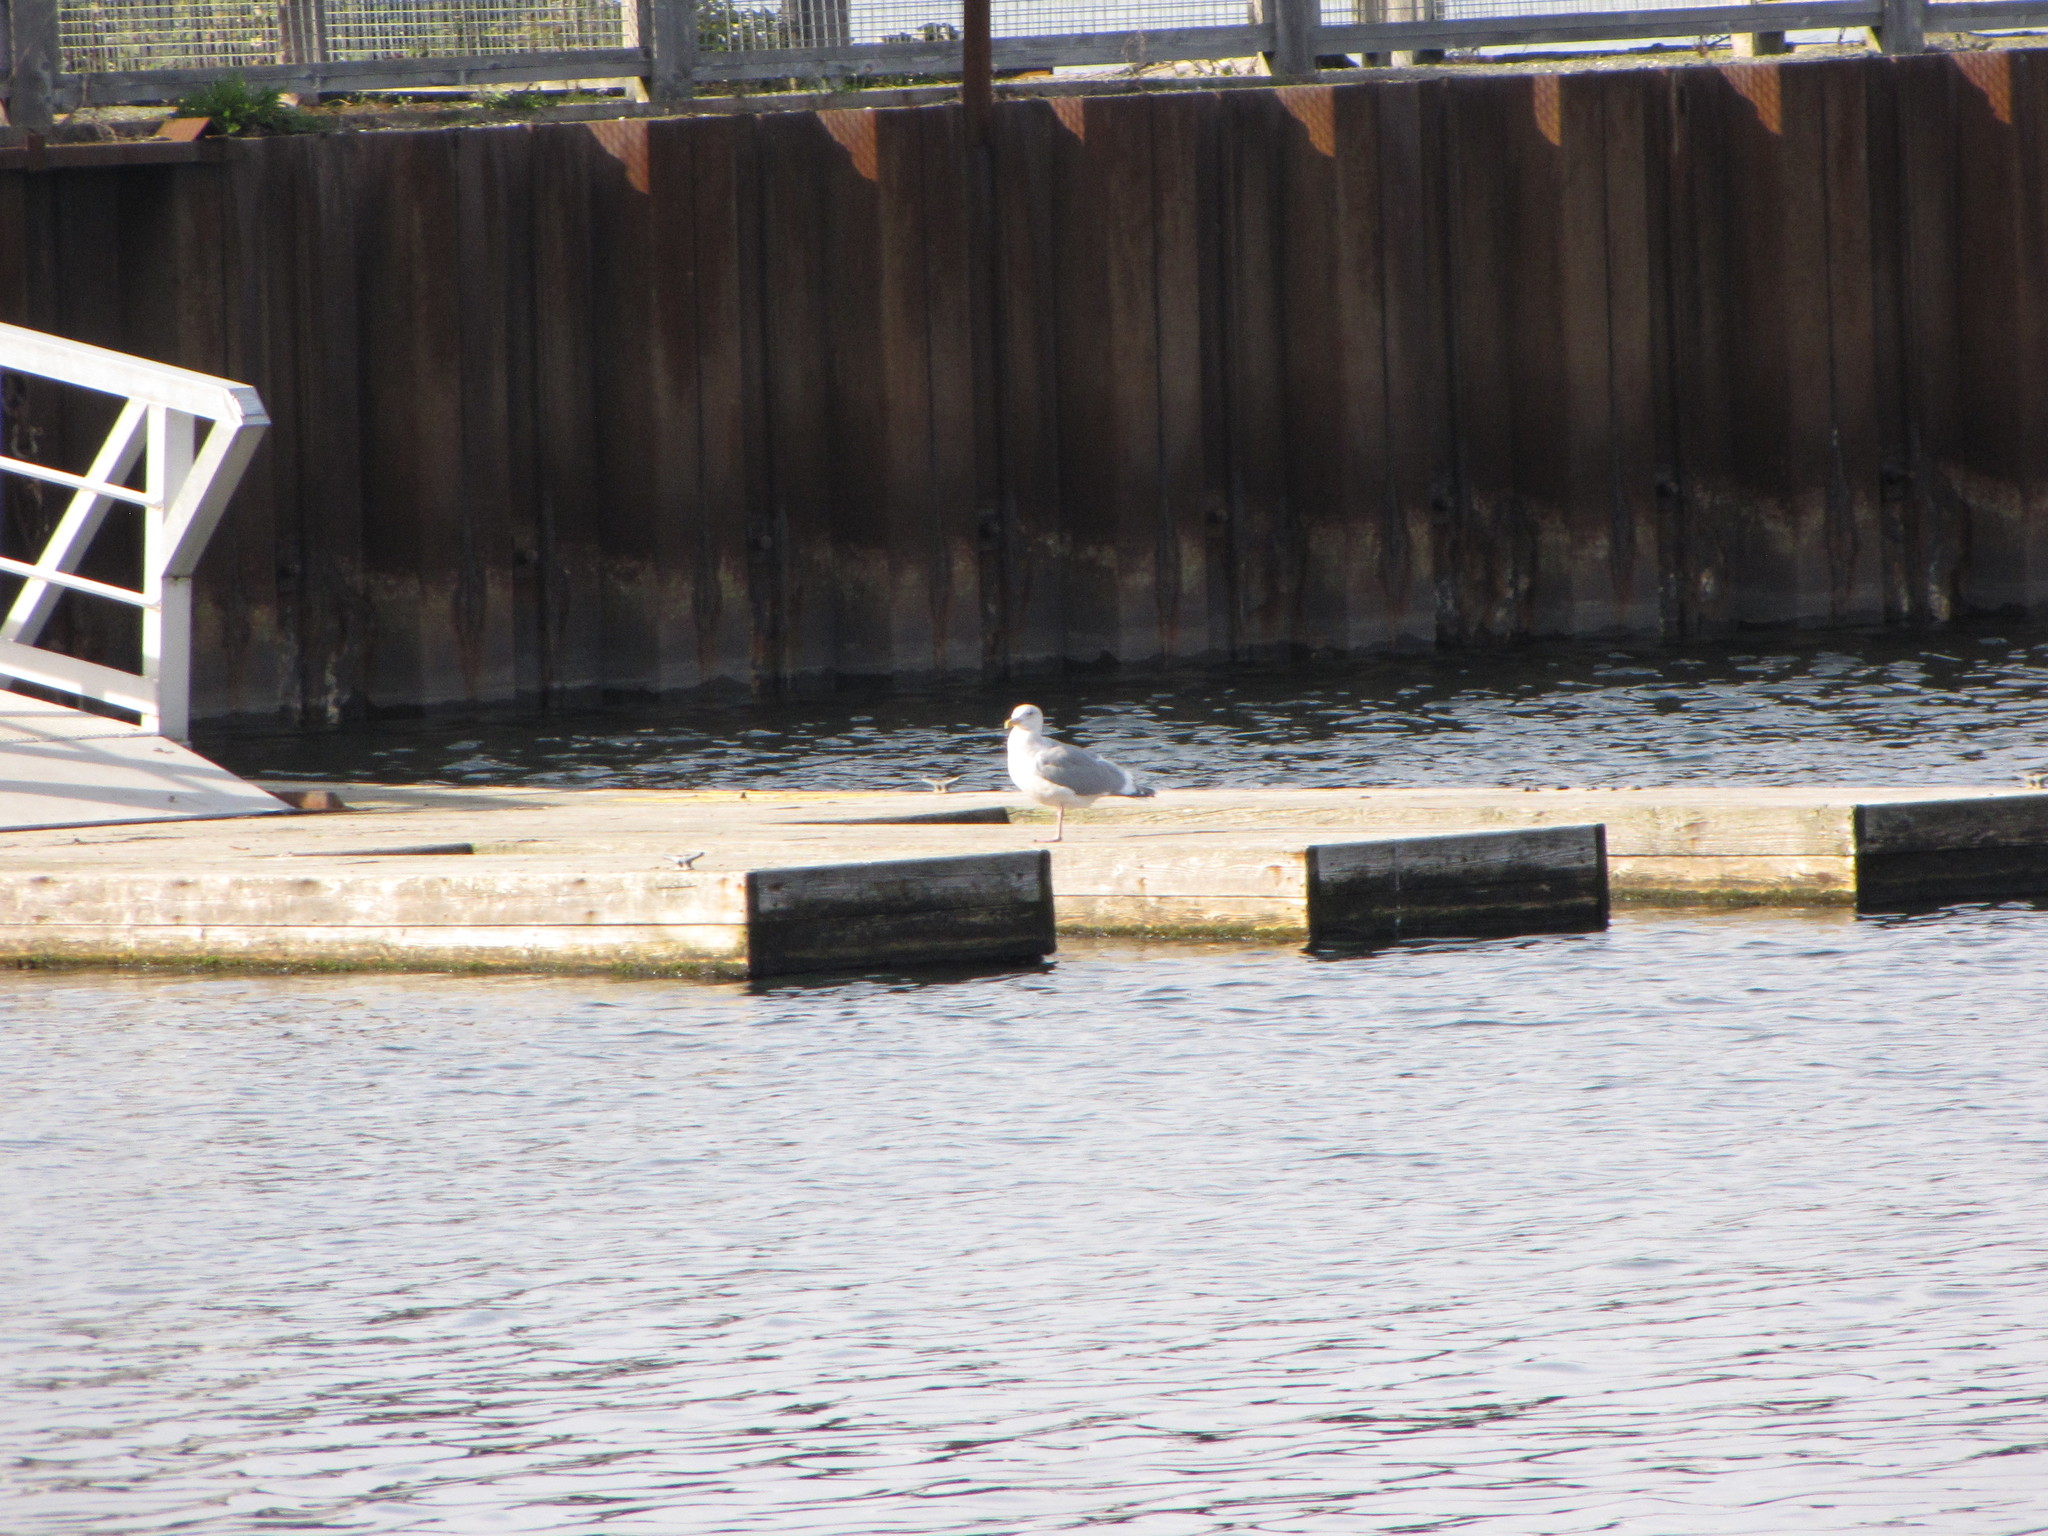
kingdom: Animalia
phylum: Chordata
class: Aves
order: Charadriiformes
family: Laridae
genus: Larus
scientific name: Larus
